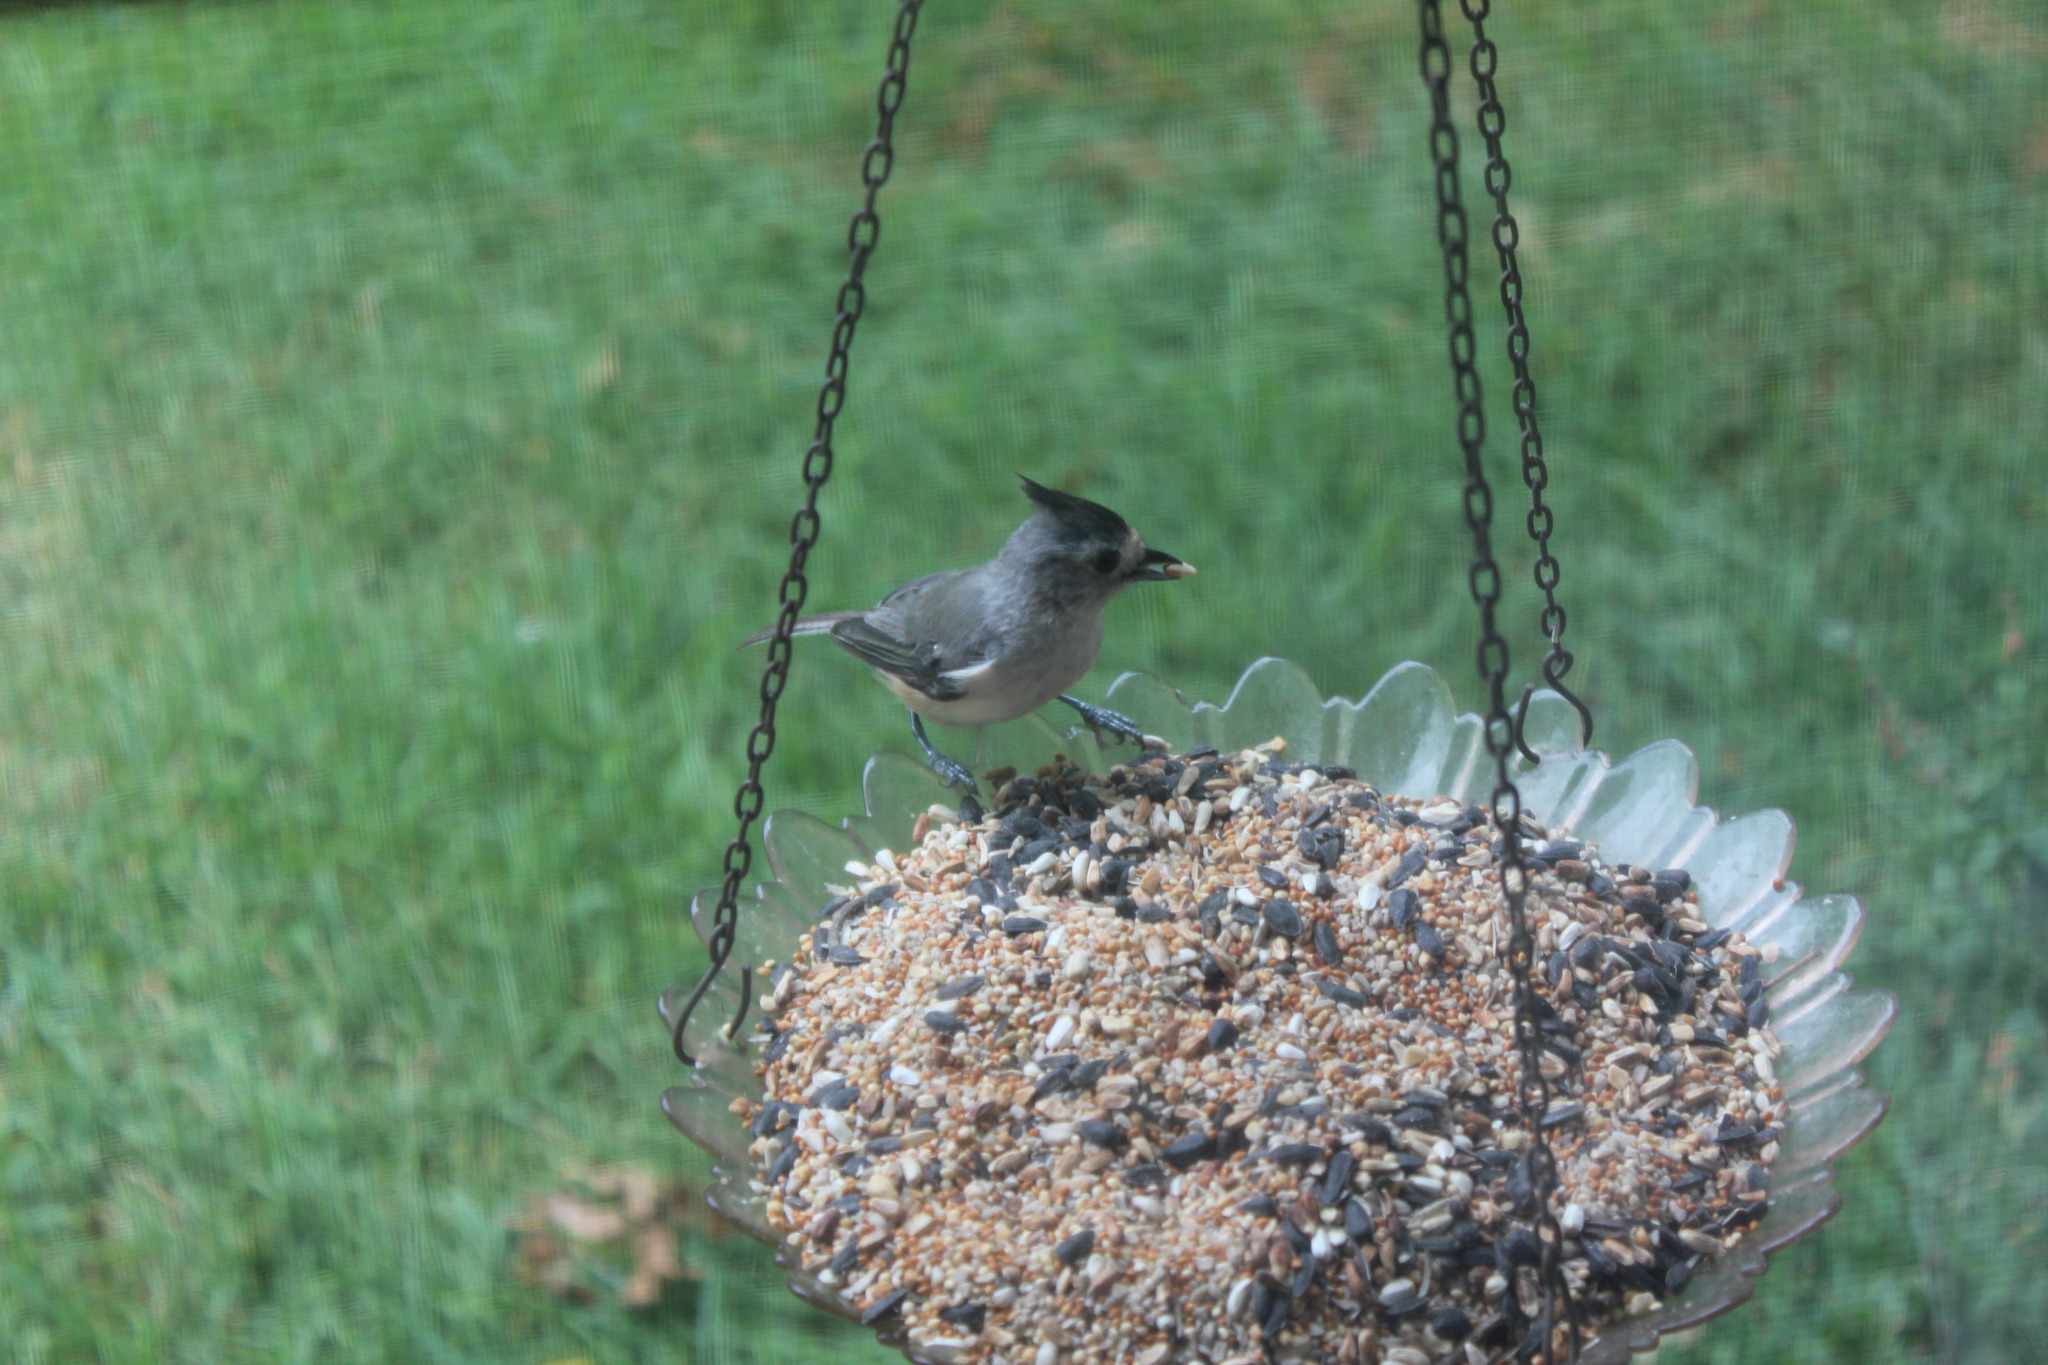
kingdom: Animalia
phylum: Chordata
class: Aves
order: Passeriformes
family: Paridae
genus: Baeolophus
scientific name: Baeolophus atricristatus
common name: Black-crested titmouse
